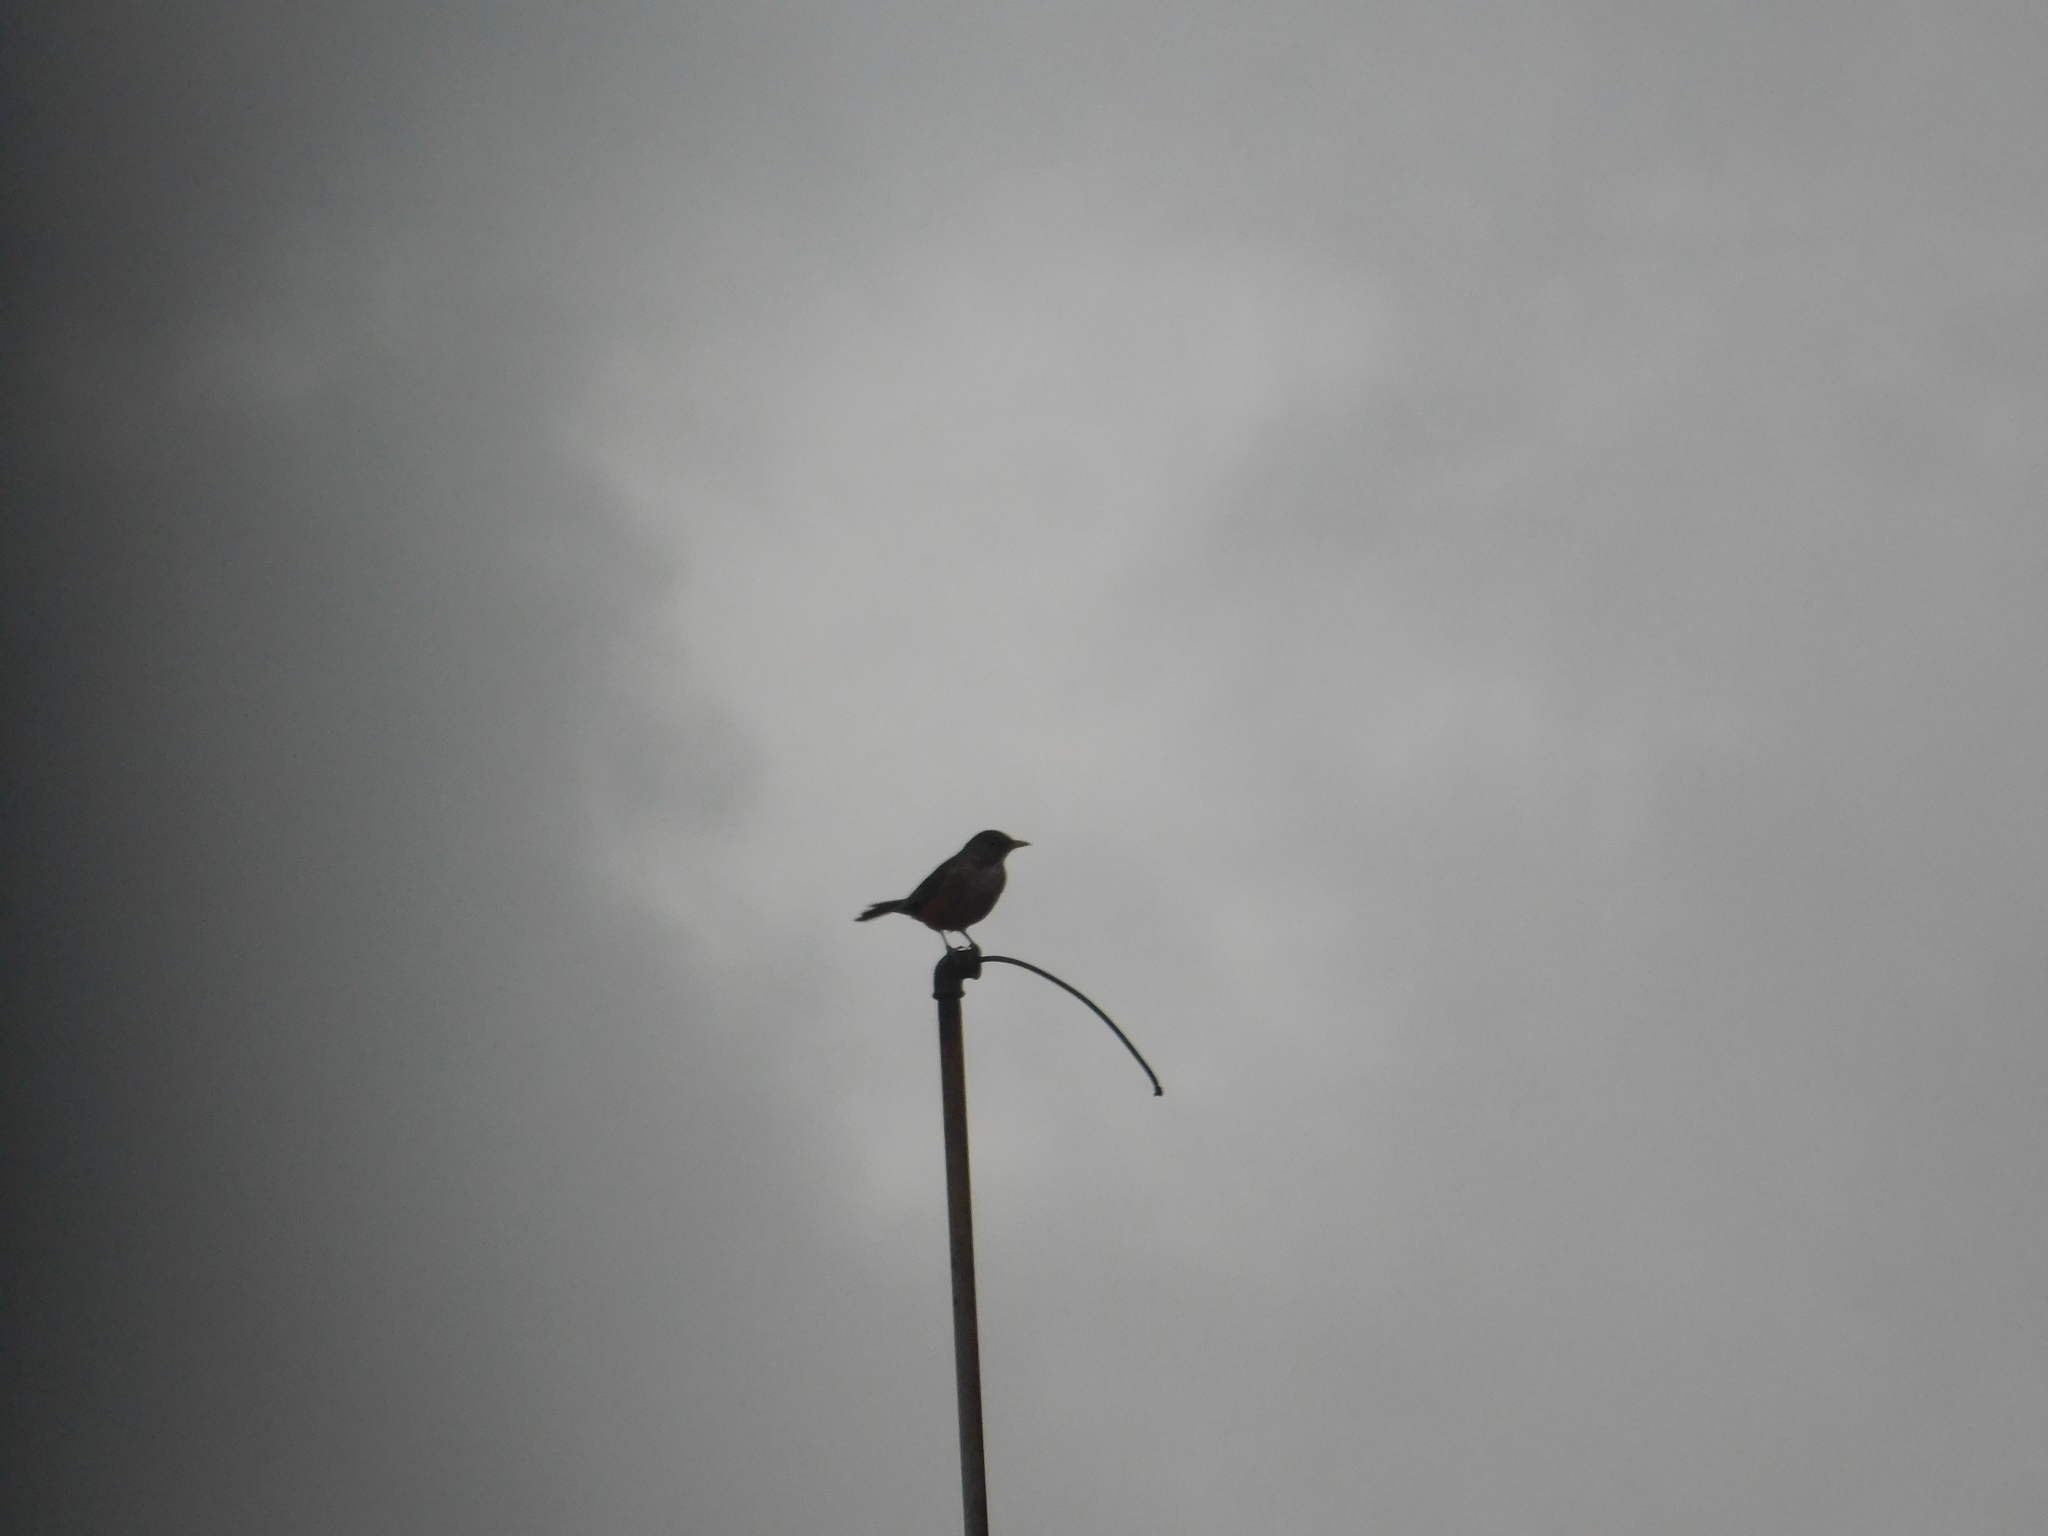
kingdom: Animalia
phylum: Chordata
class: Aves
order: Passeriformes
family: Turdidae
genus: Turdus
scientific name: Turdus rufiventris
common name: Rufous-bellied thrush
